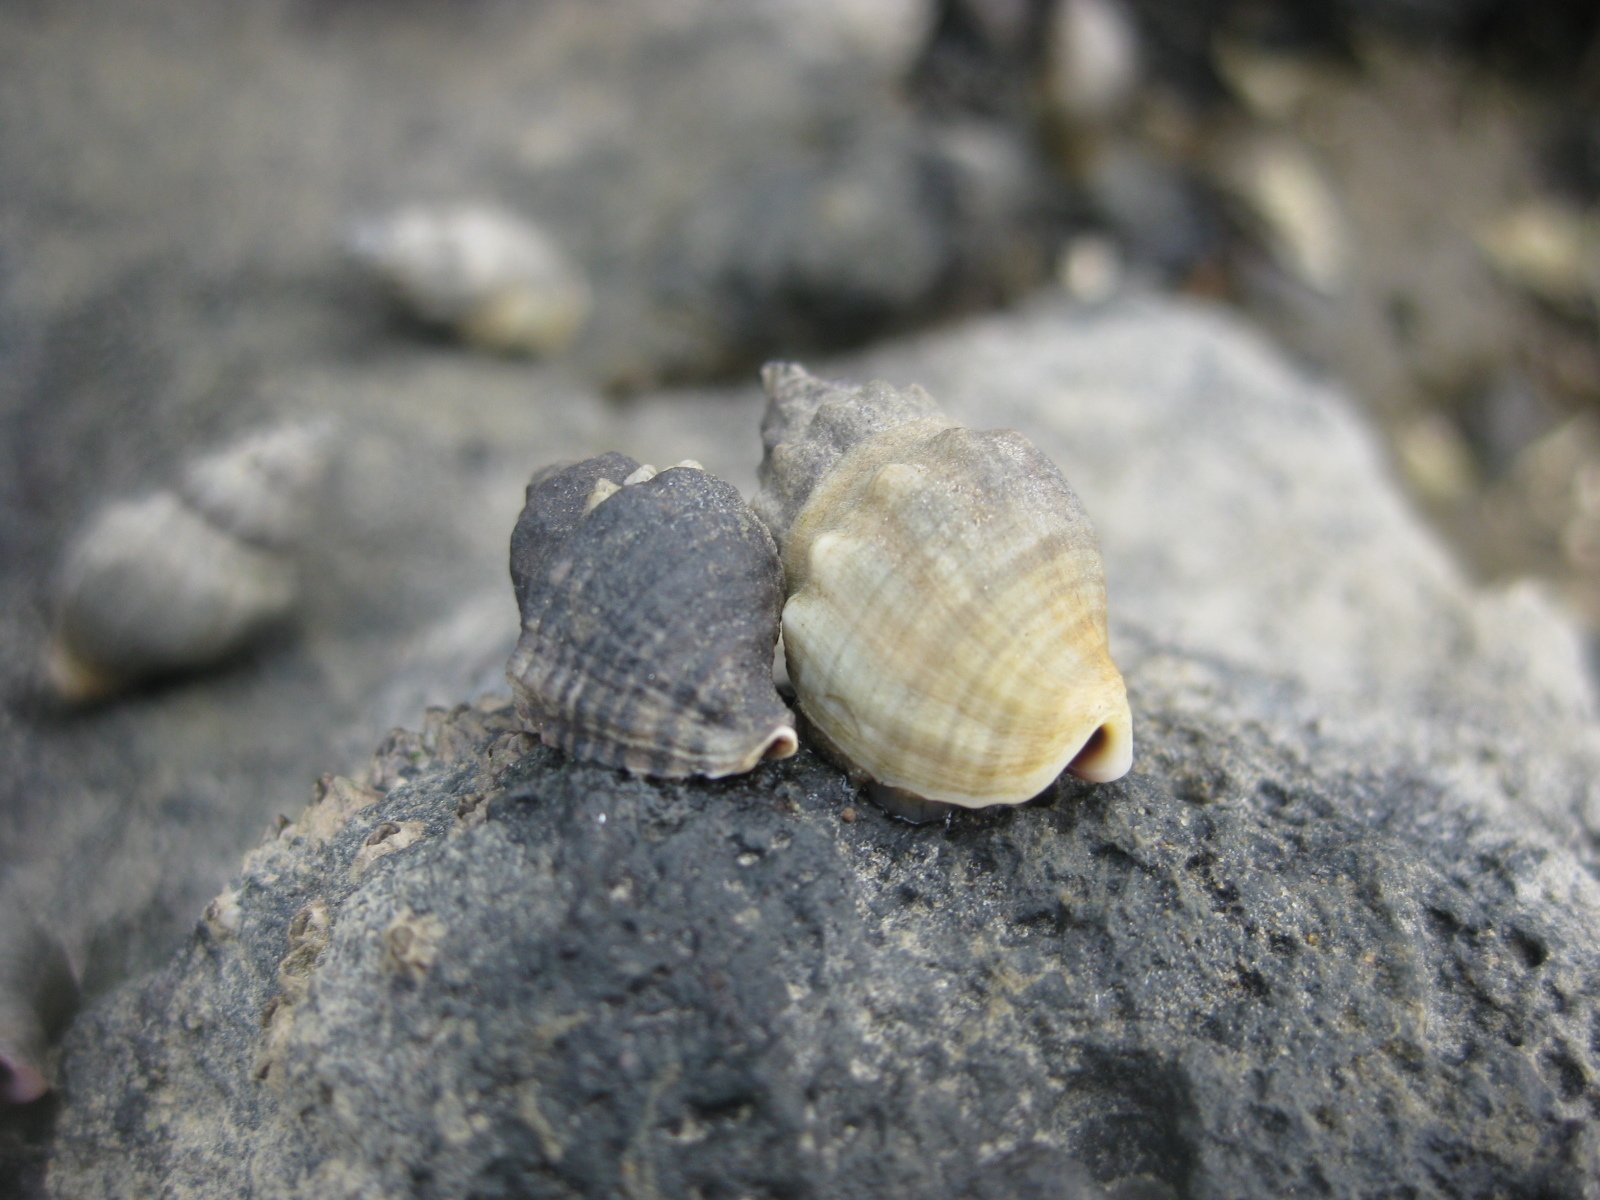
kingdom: Animalia
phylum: Mollusca
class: Gastropoda
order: Neogastropoda
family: Muricidae
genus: Haustrum
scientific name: Haustrum albomarginatum
